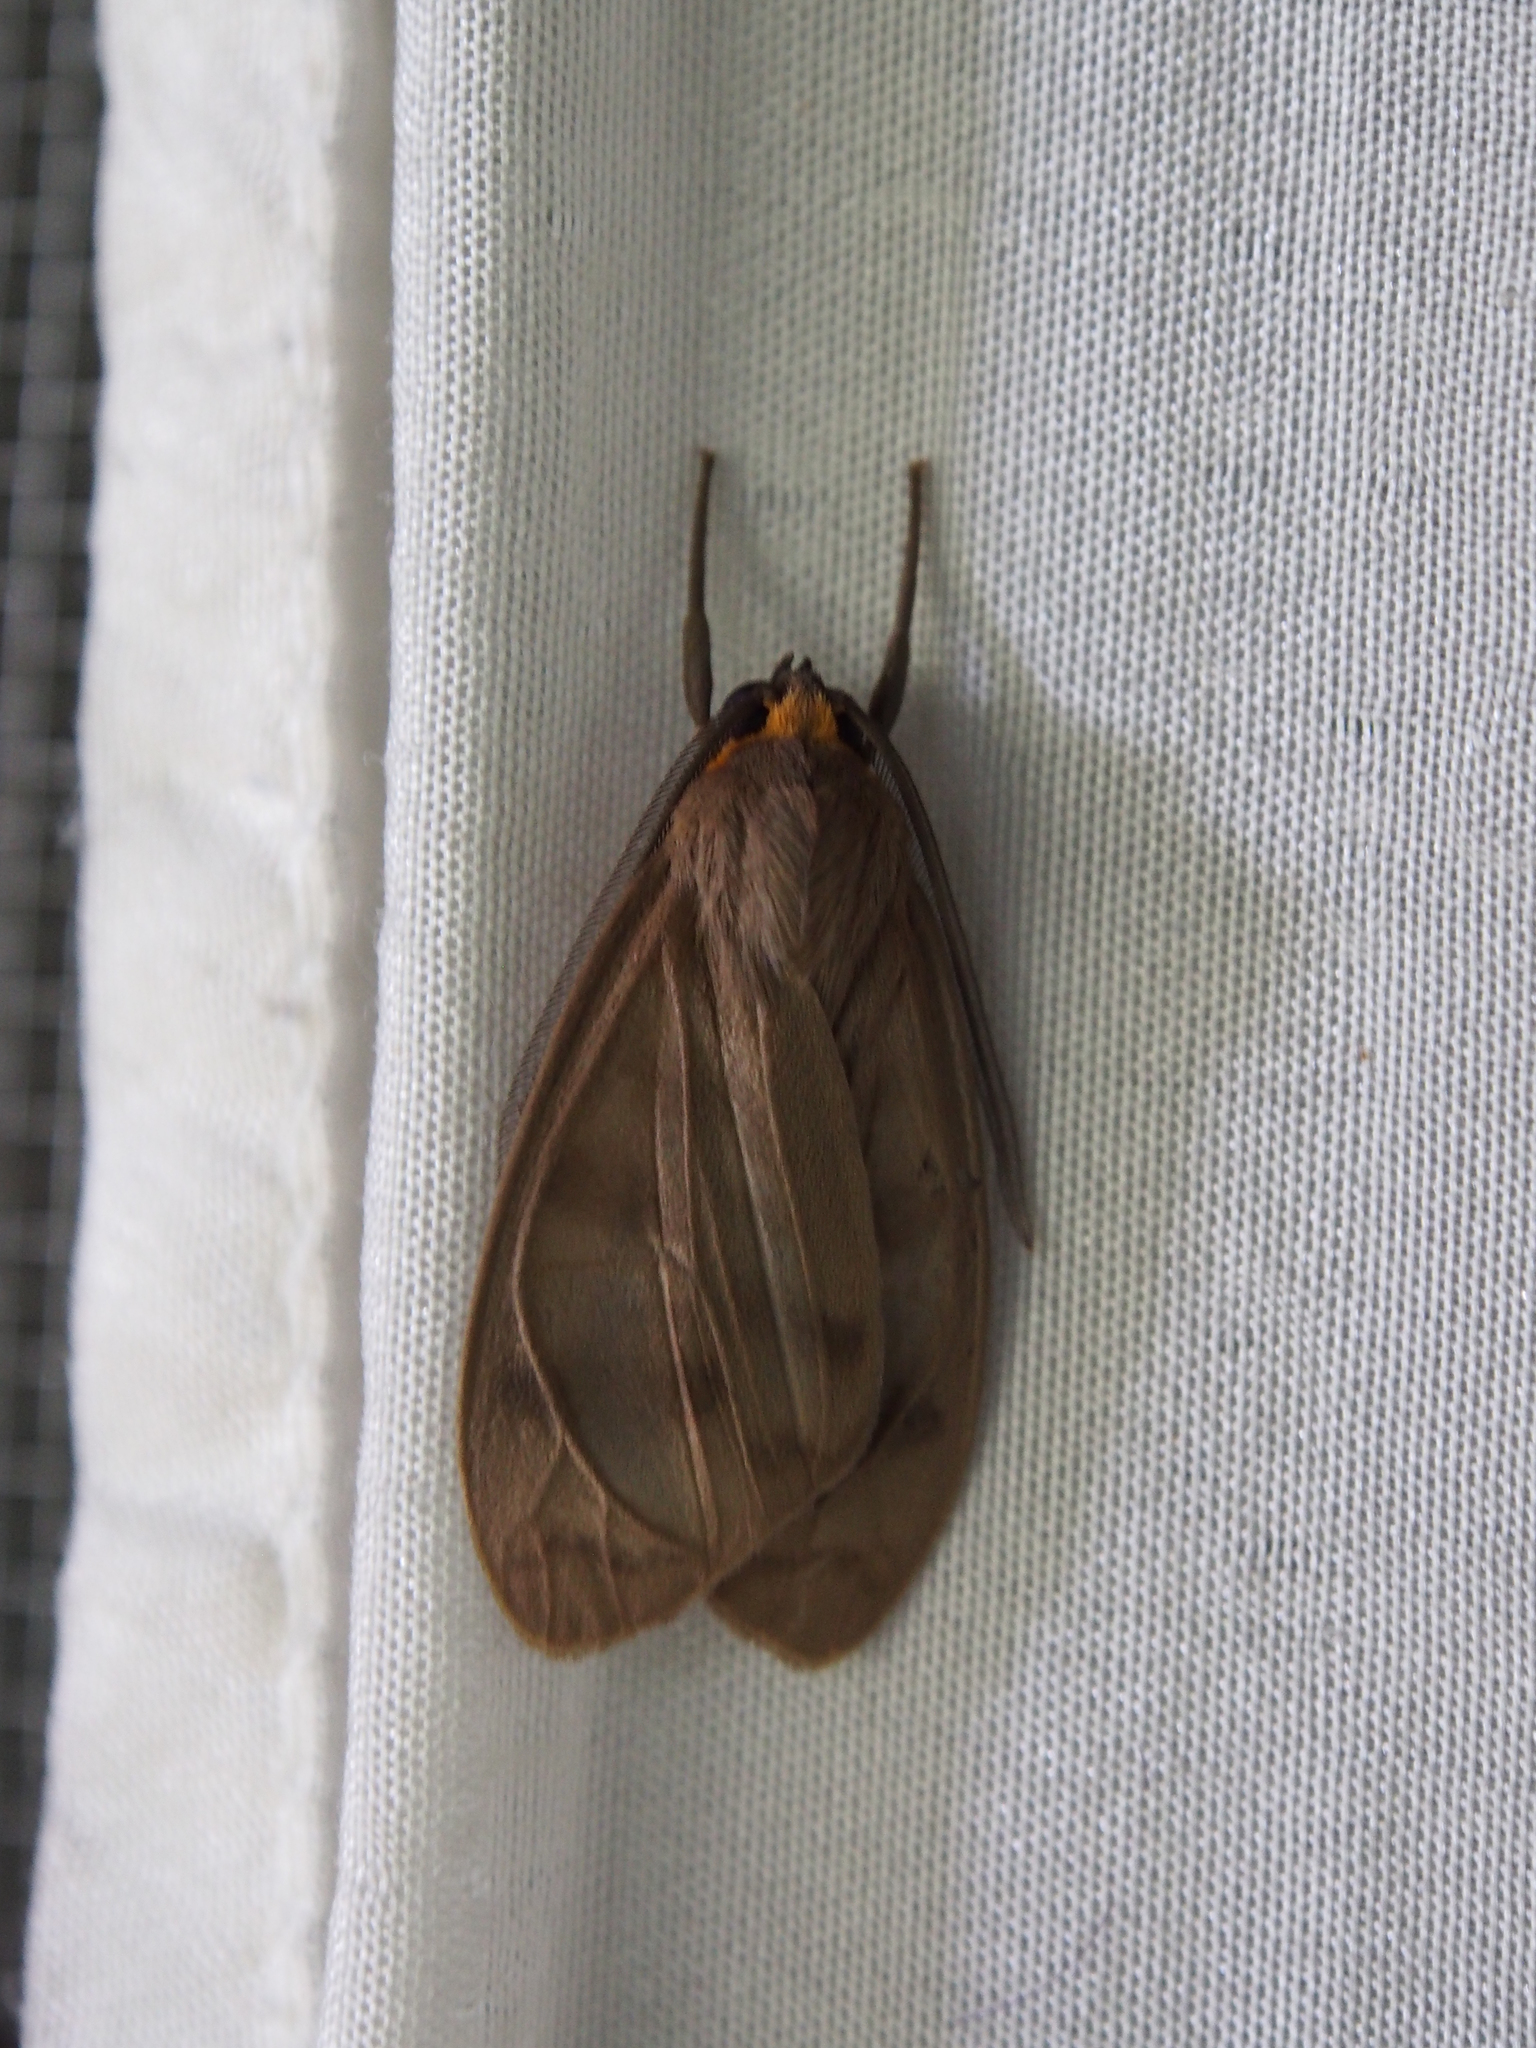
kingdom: Animalia
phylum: Arthropoda
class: Insecta
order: Lepidoptera
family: Erebidae
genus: Tricypha
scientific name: Tricypha imperialis
